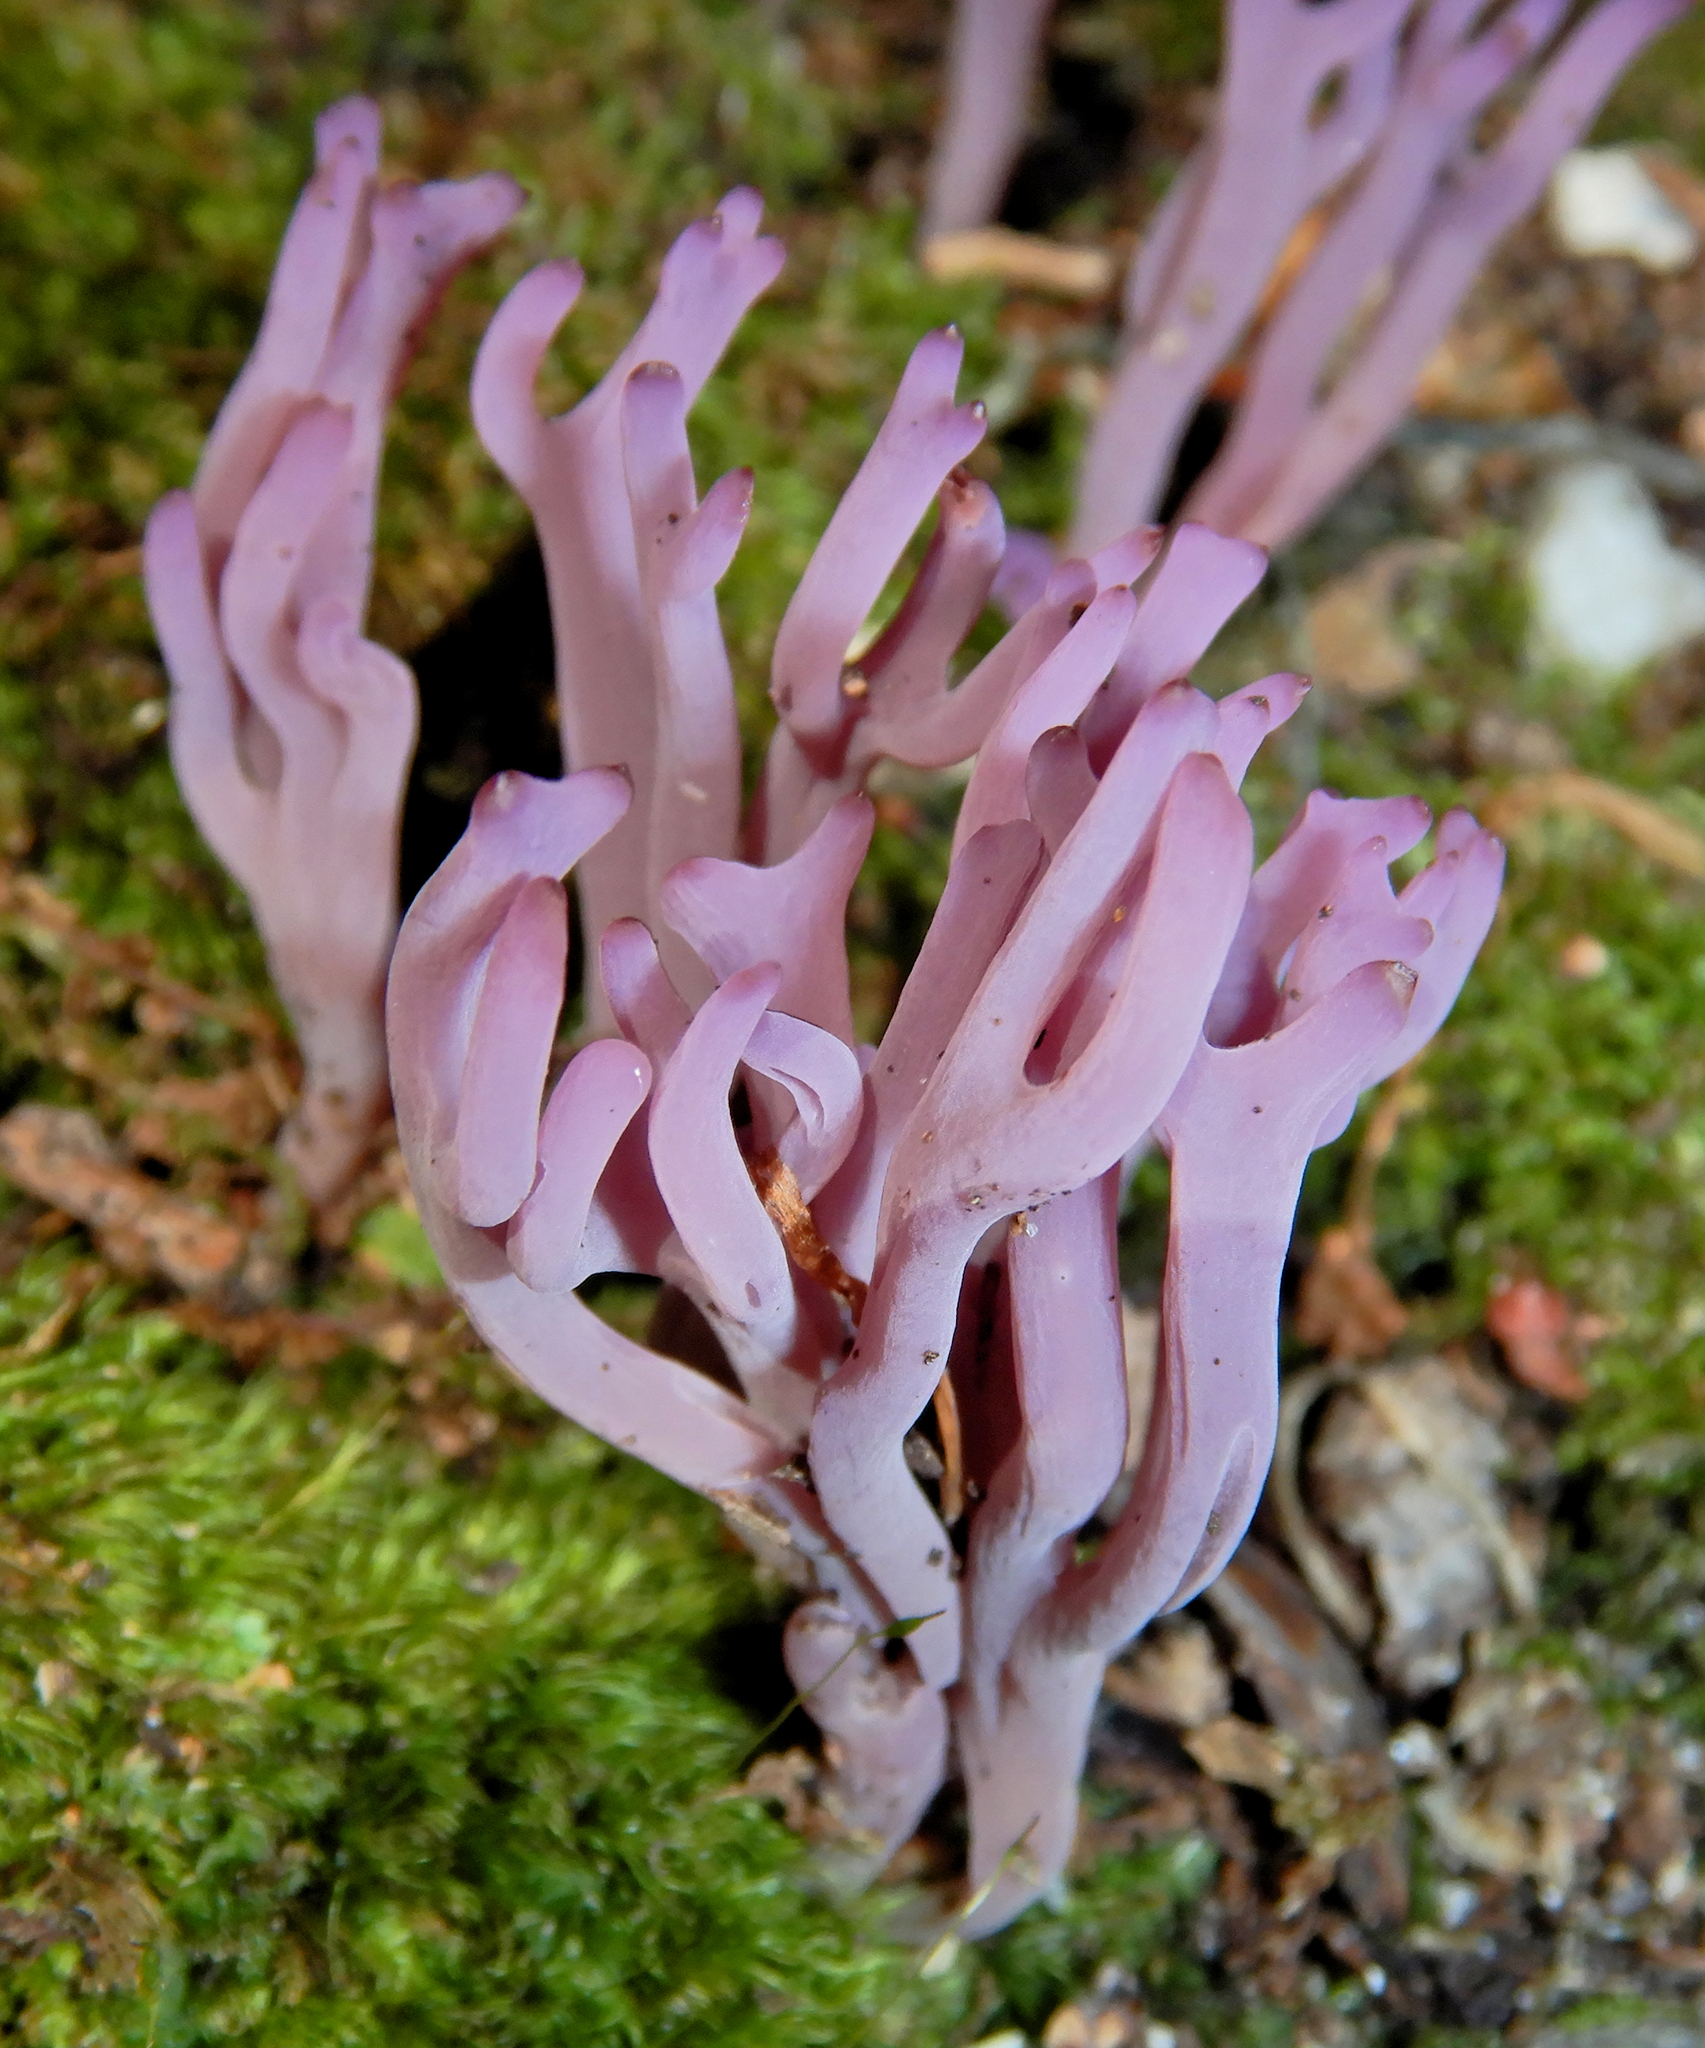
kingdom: Fungi
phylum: Basidiomycota
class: Agaricomycetes
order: Agaricales
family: Clavariaceae
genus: Clavaria
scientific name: Clavaria zollingeri
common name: Violet coral
